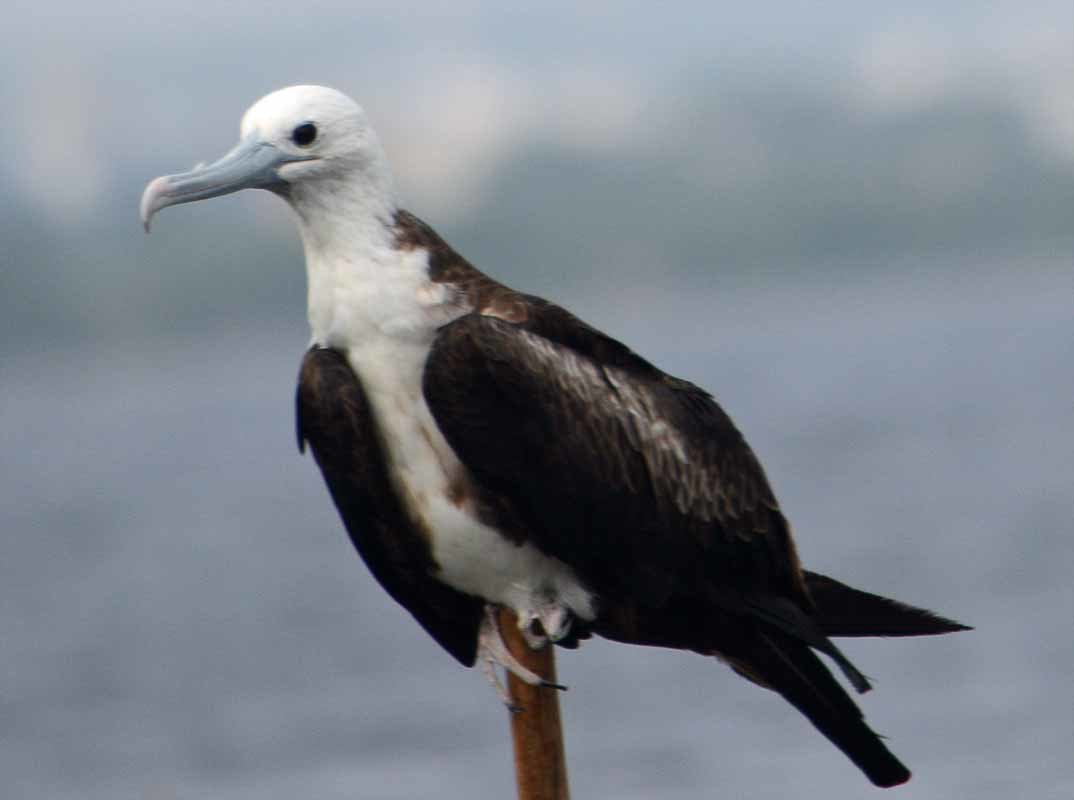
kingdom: Animalia
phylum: Chordata
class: Aves
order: Suliformes
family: Fregatidae
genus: Fregata
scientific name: Fregata magnificens
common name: Magnificent frigatebird
